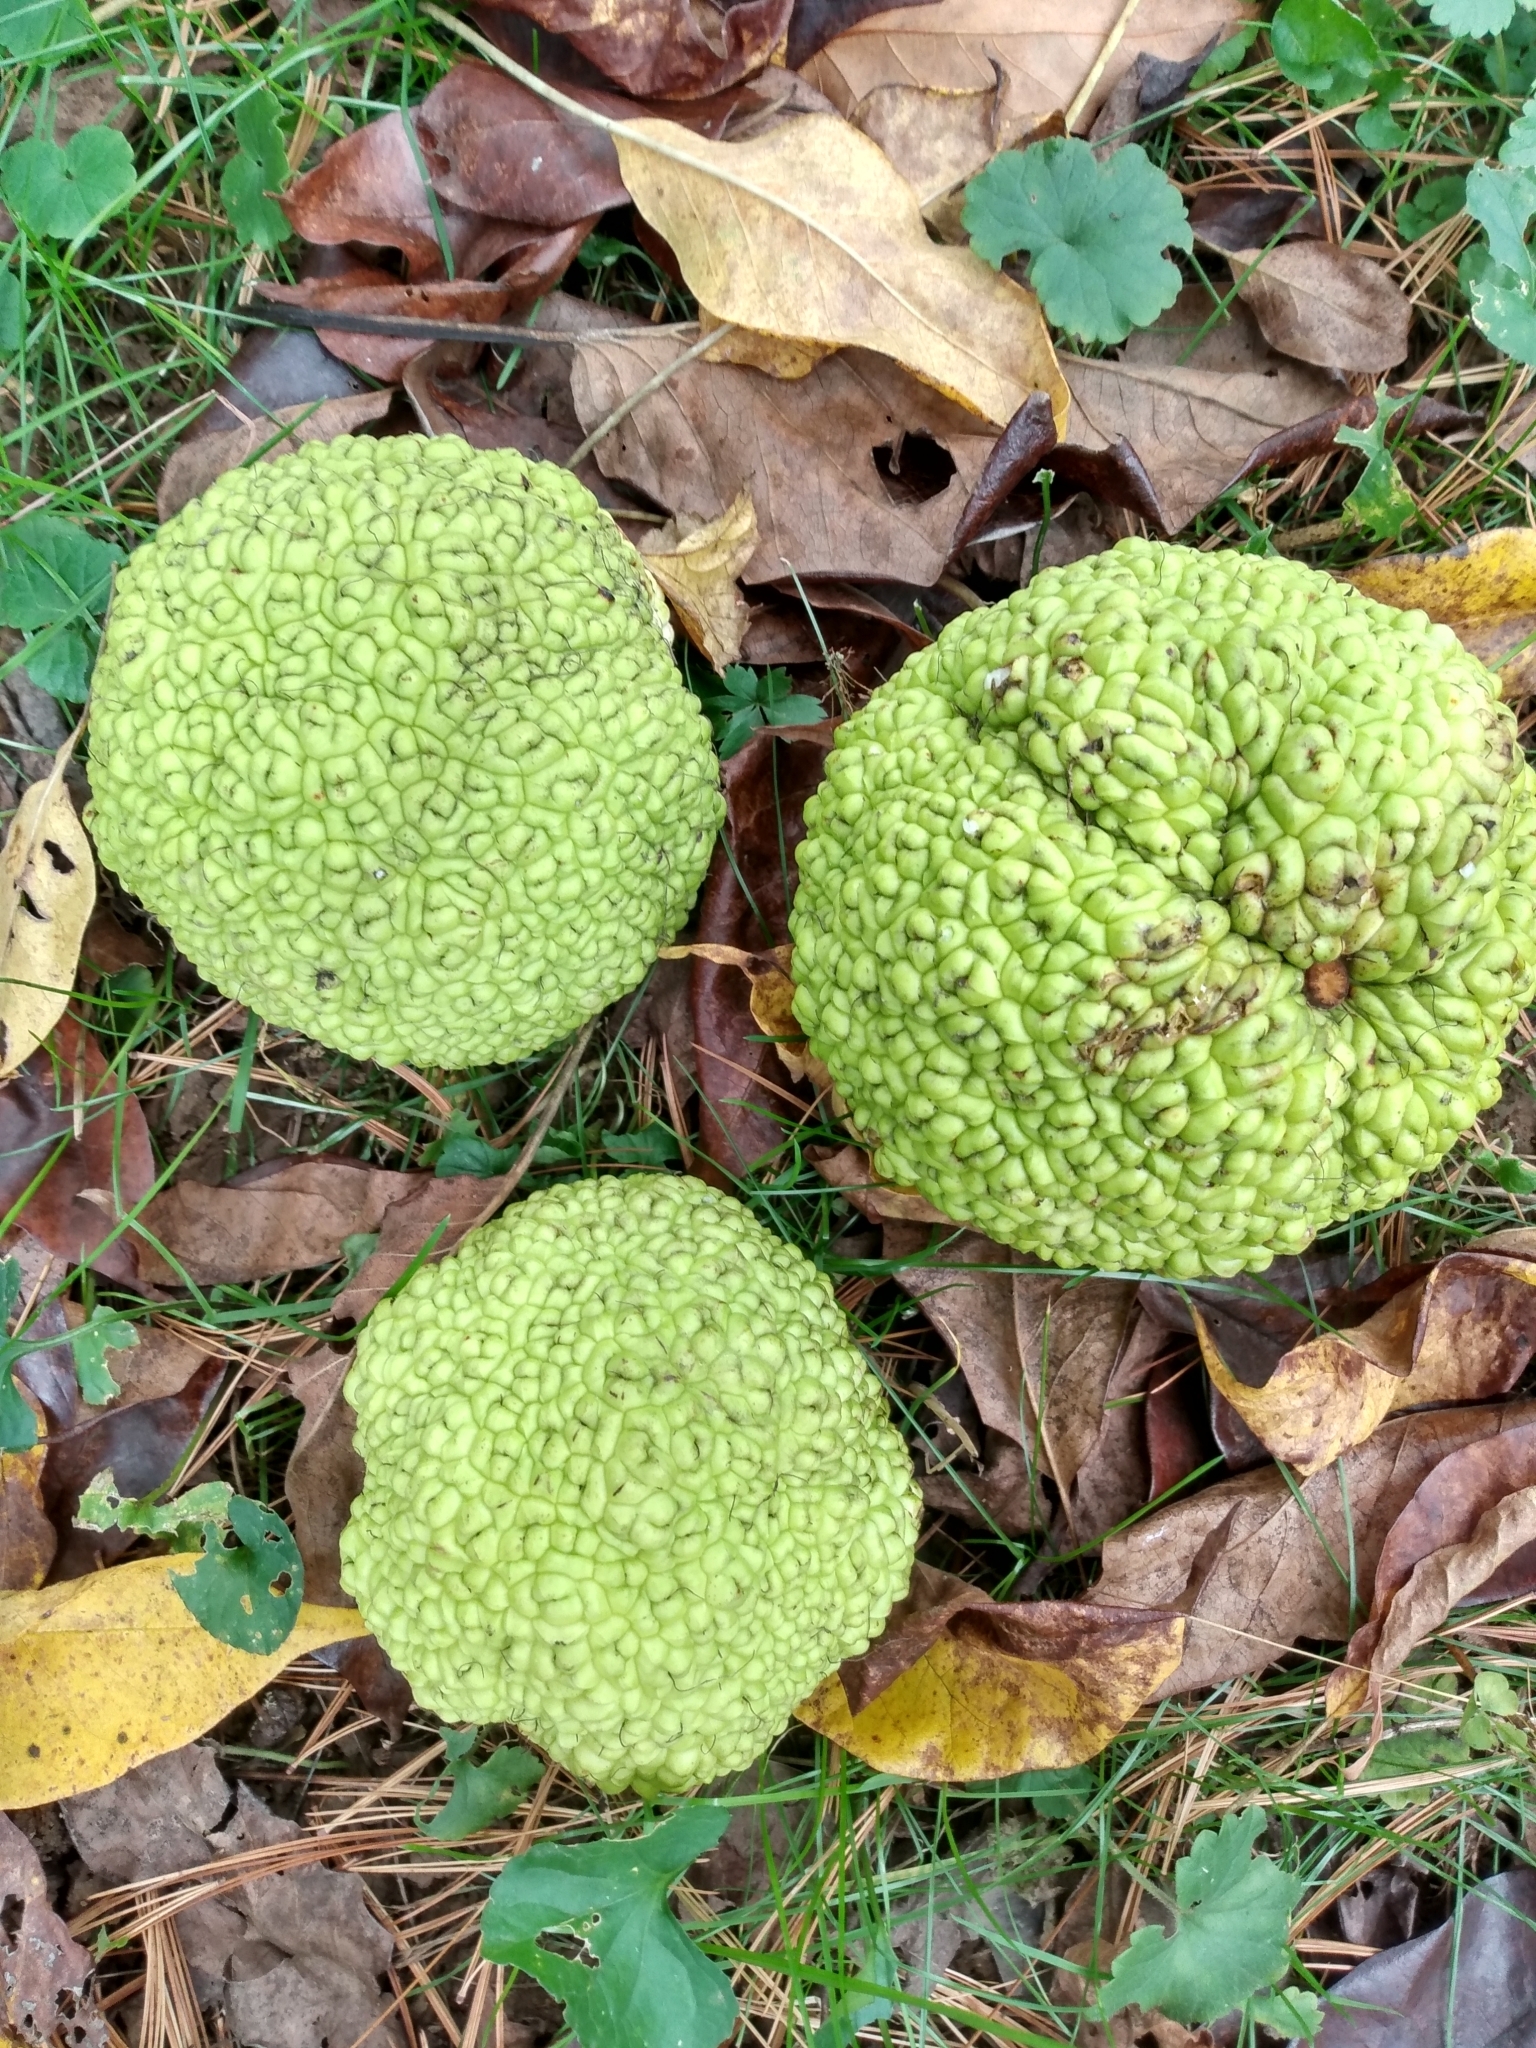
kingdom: Plantae
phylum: Tracheophyta
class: Magnoliopsida
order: Rosales
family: Moraceae
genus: Maclura
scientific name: Maclura pomifera
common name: Osage-orange
